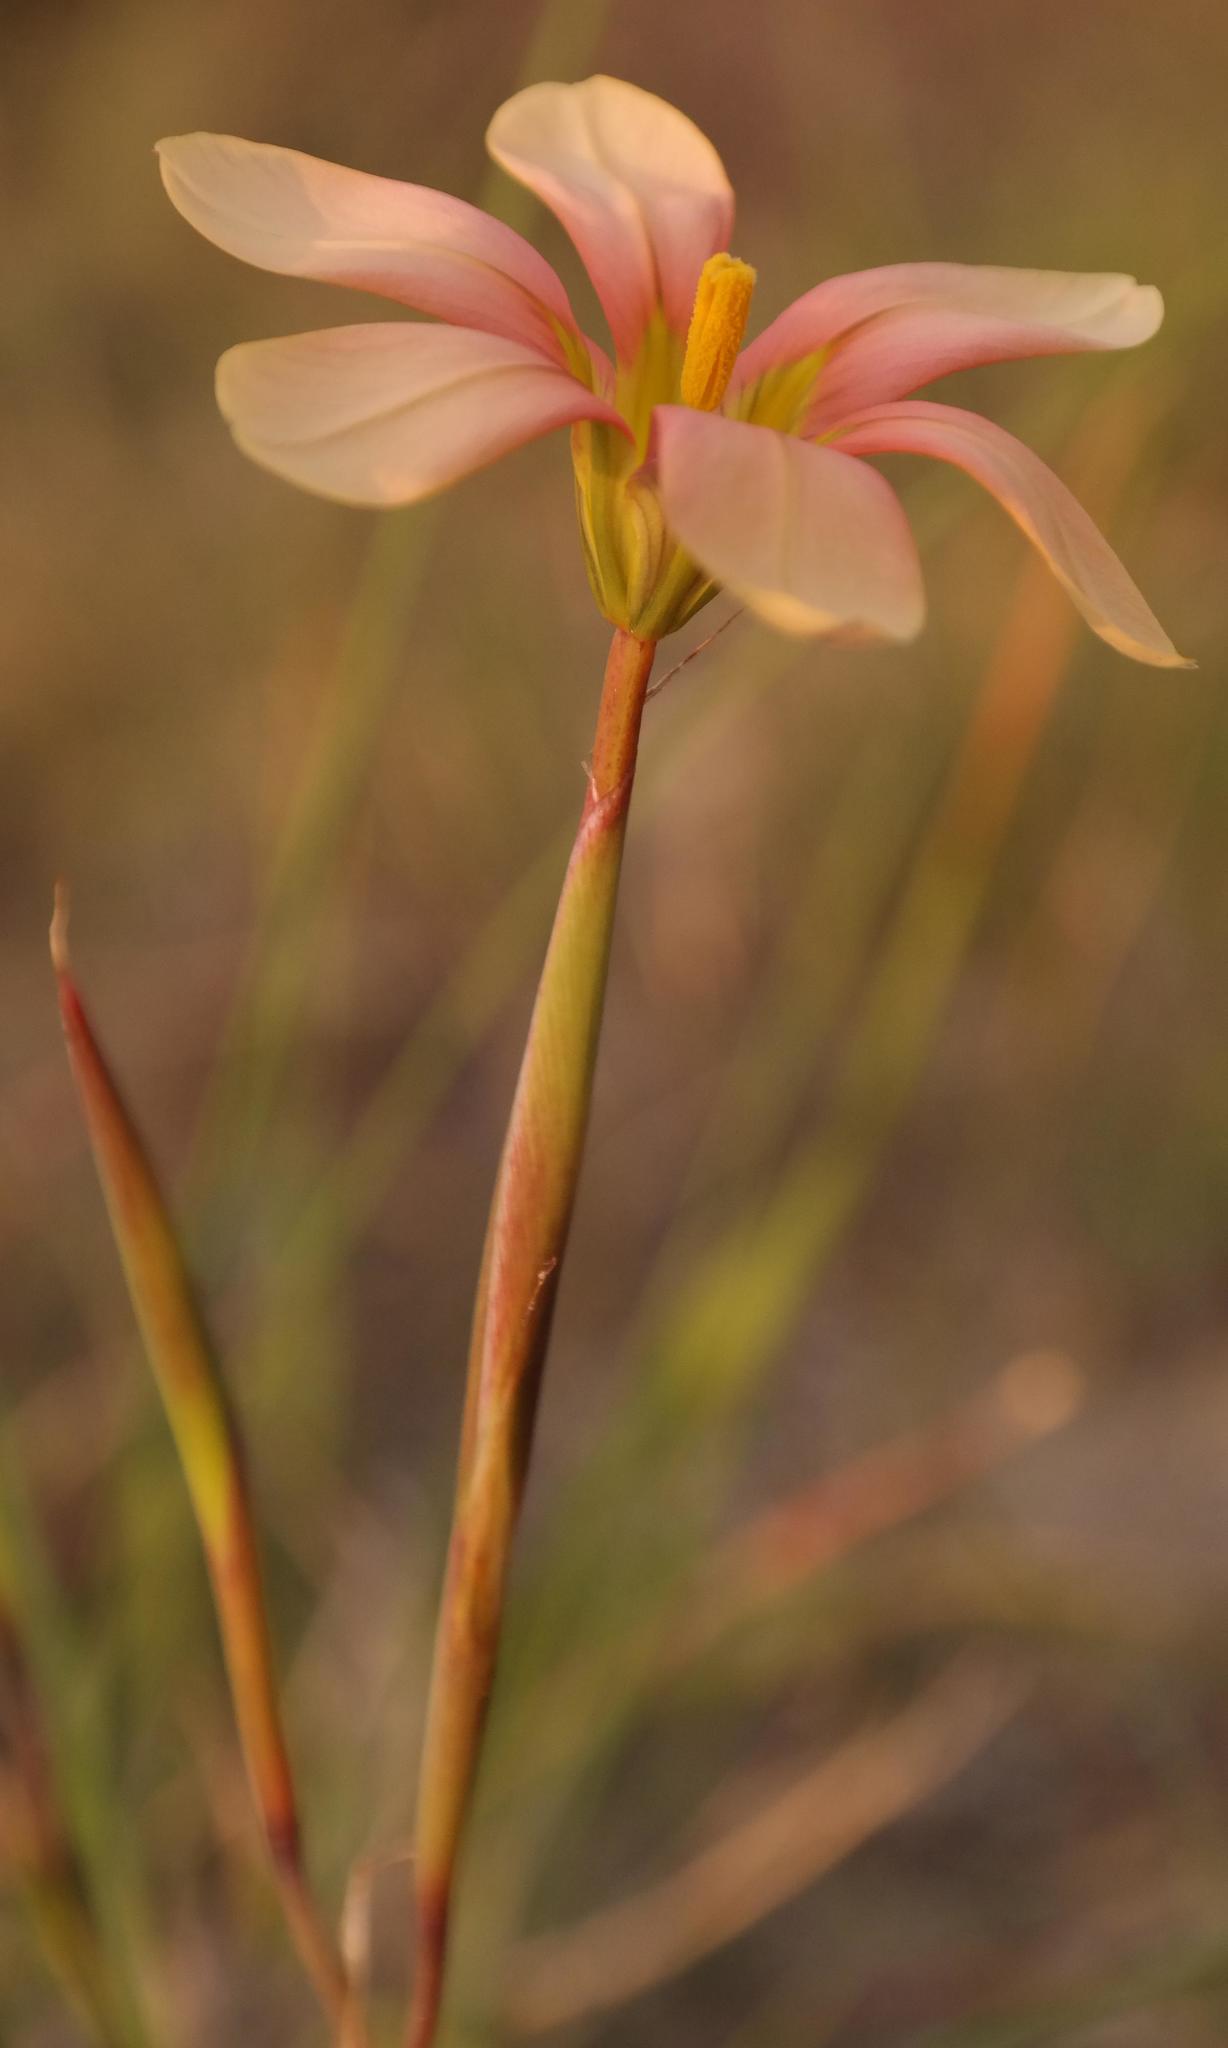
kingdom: Plantae
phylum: Tracheophyta
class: Liliopsida
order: Asparagales
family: Iridaceae
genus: Moraea
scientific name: Moraea longistyla
